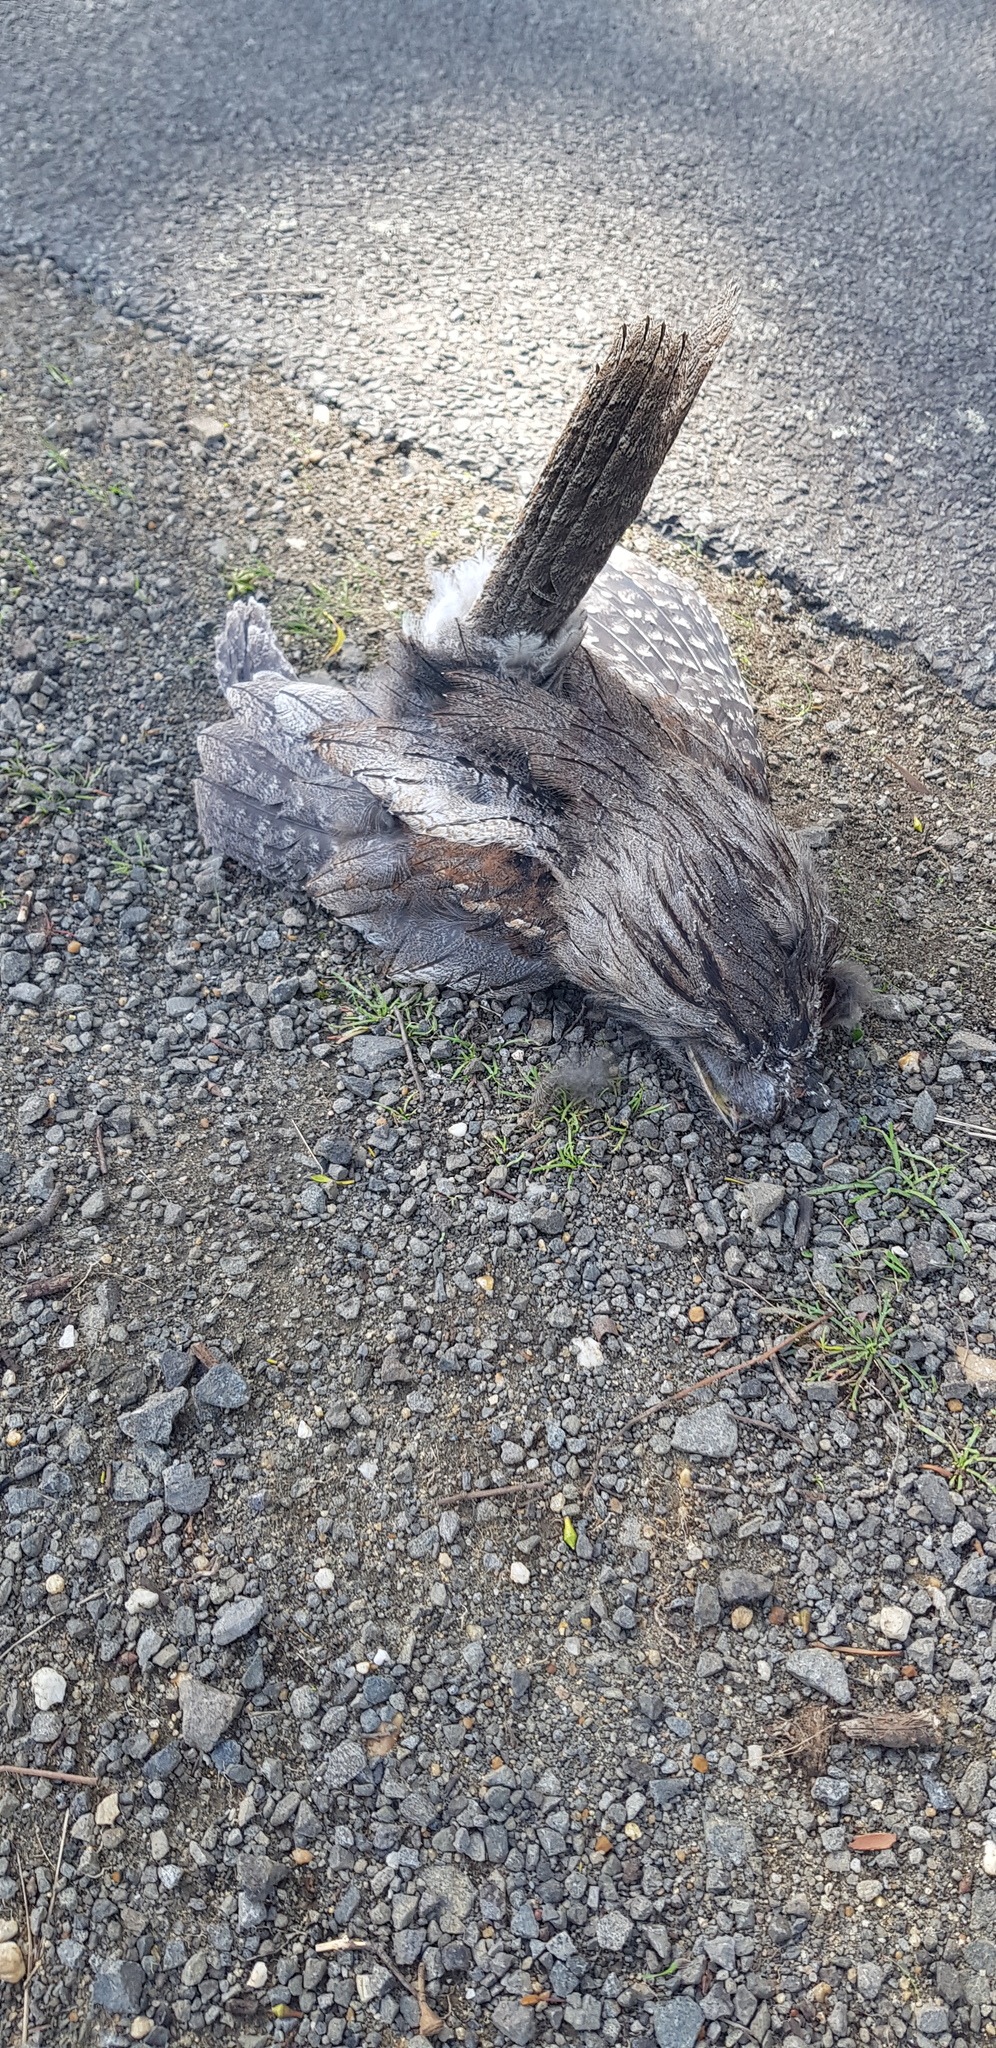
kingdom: Animalia
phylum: Chordata
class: Aves
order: Caprimulgiformes
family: Podargidae
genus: Podargus
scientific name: Podargus strigoides
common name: Tawny frogmouth
